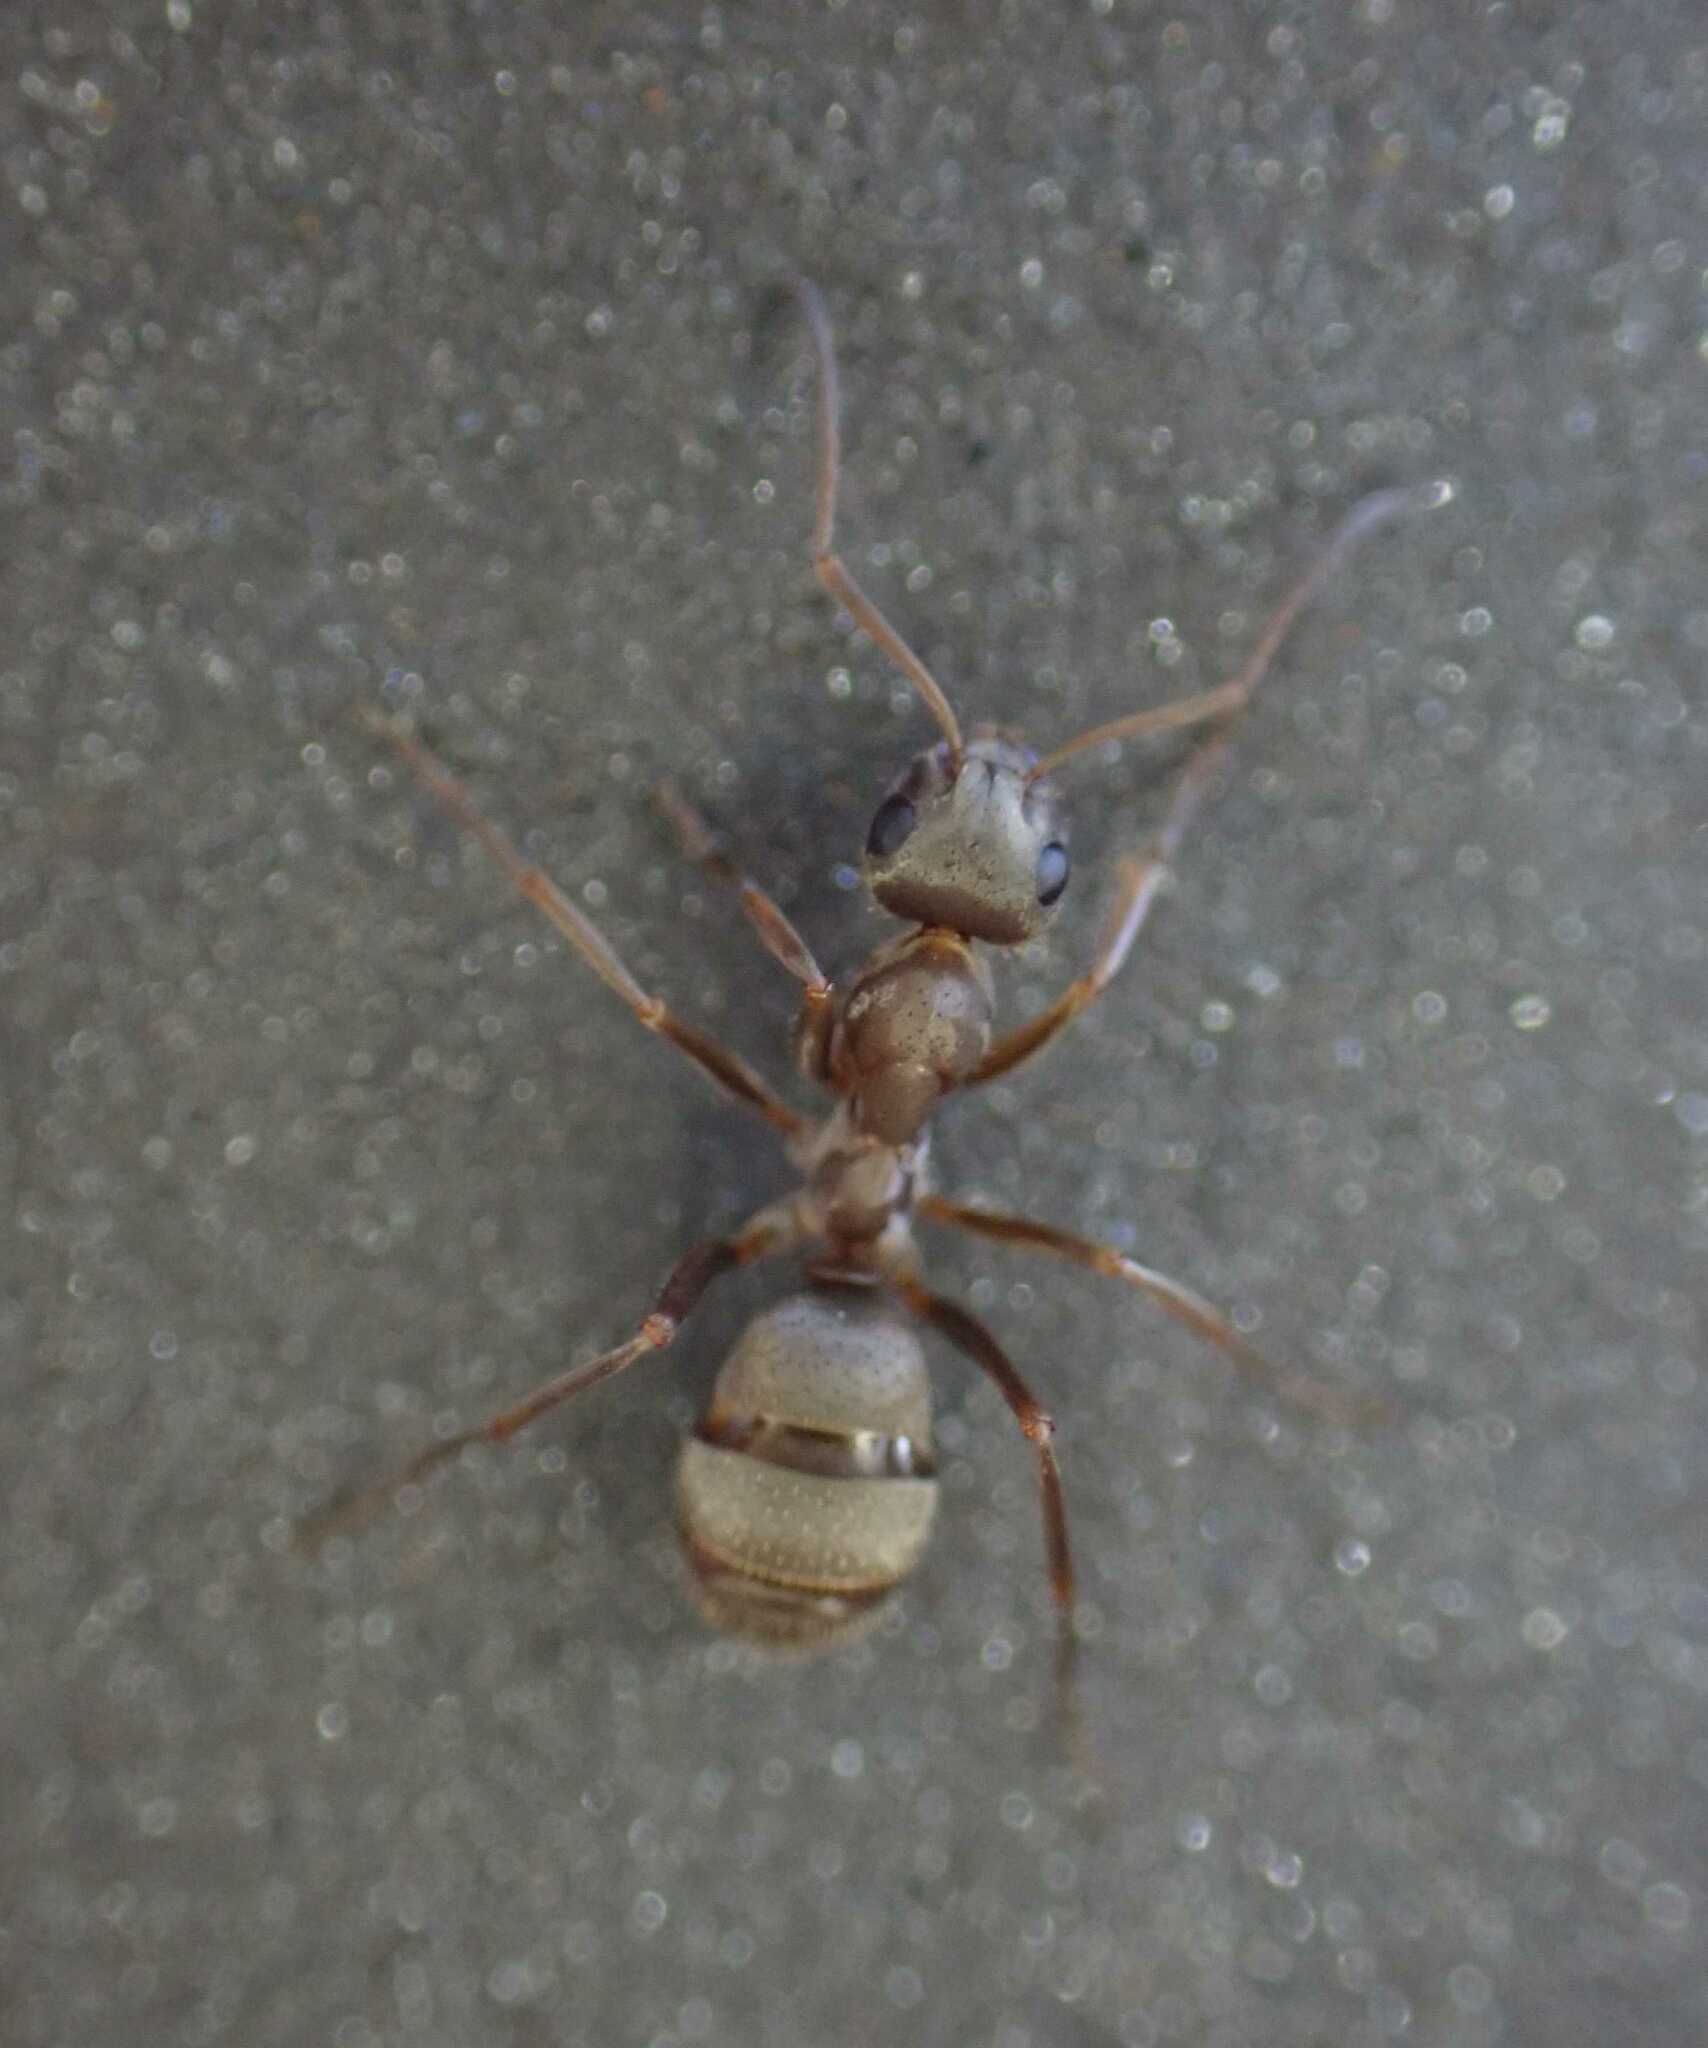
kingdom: Animalia
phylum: Arthropoda
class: Insecta
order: Hymenoptera
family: Formicidae
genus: Formica
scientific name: Formica cinerea
